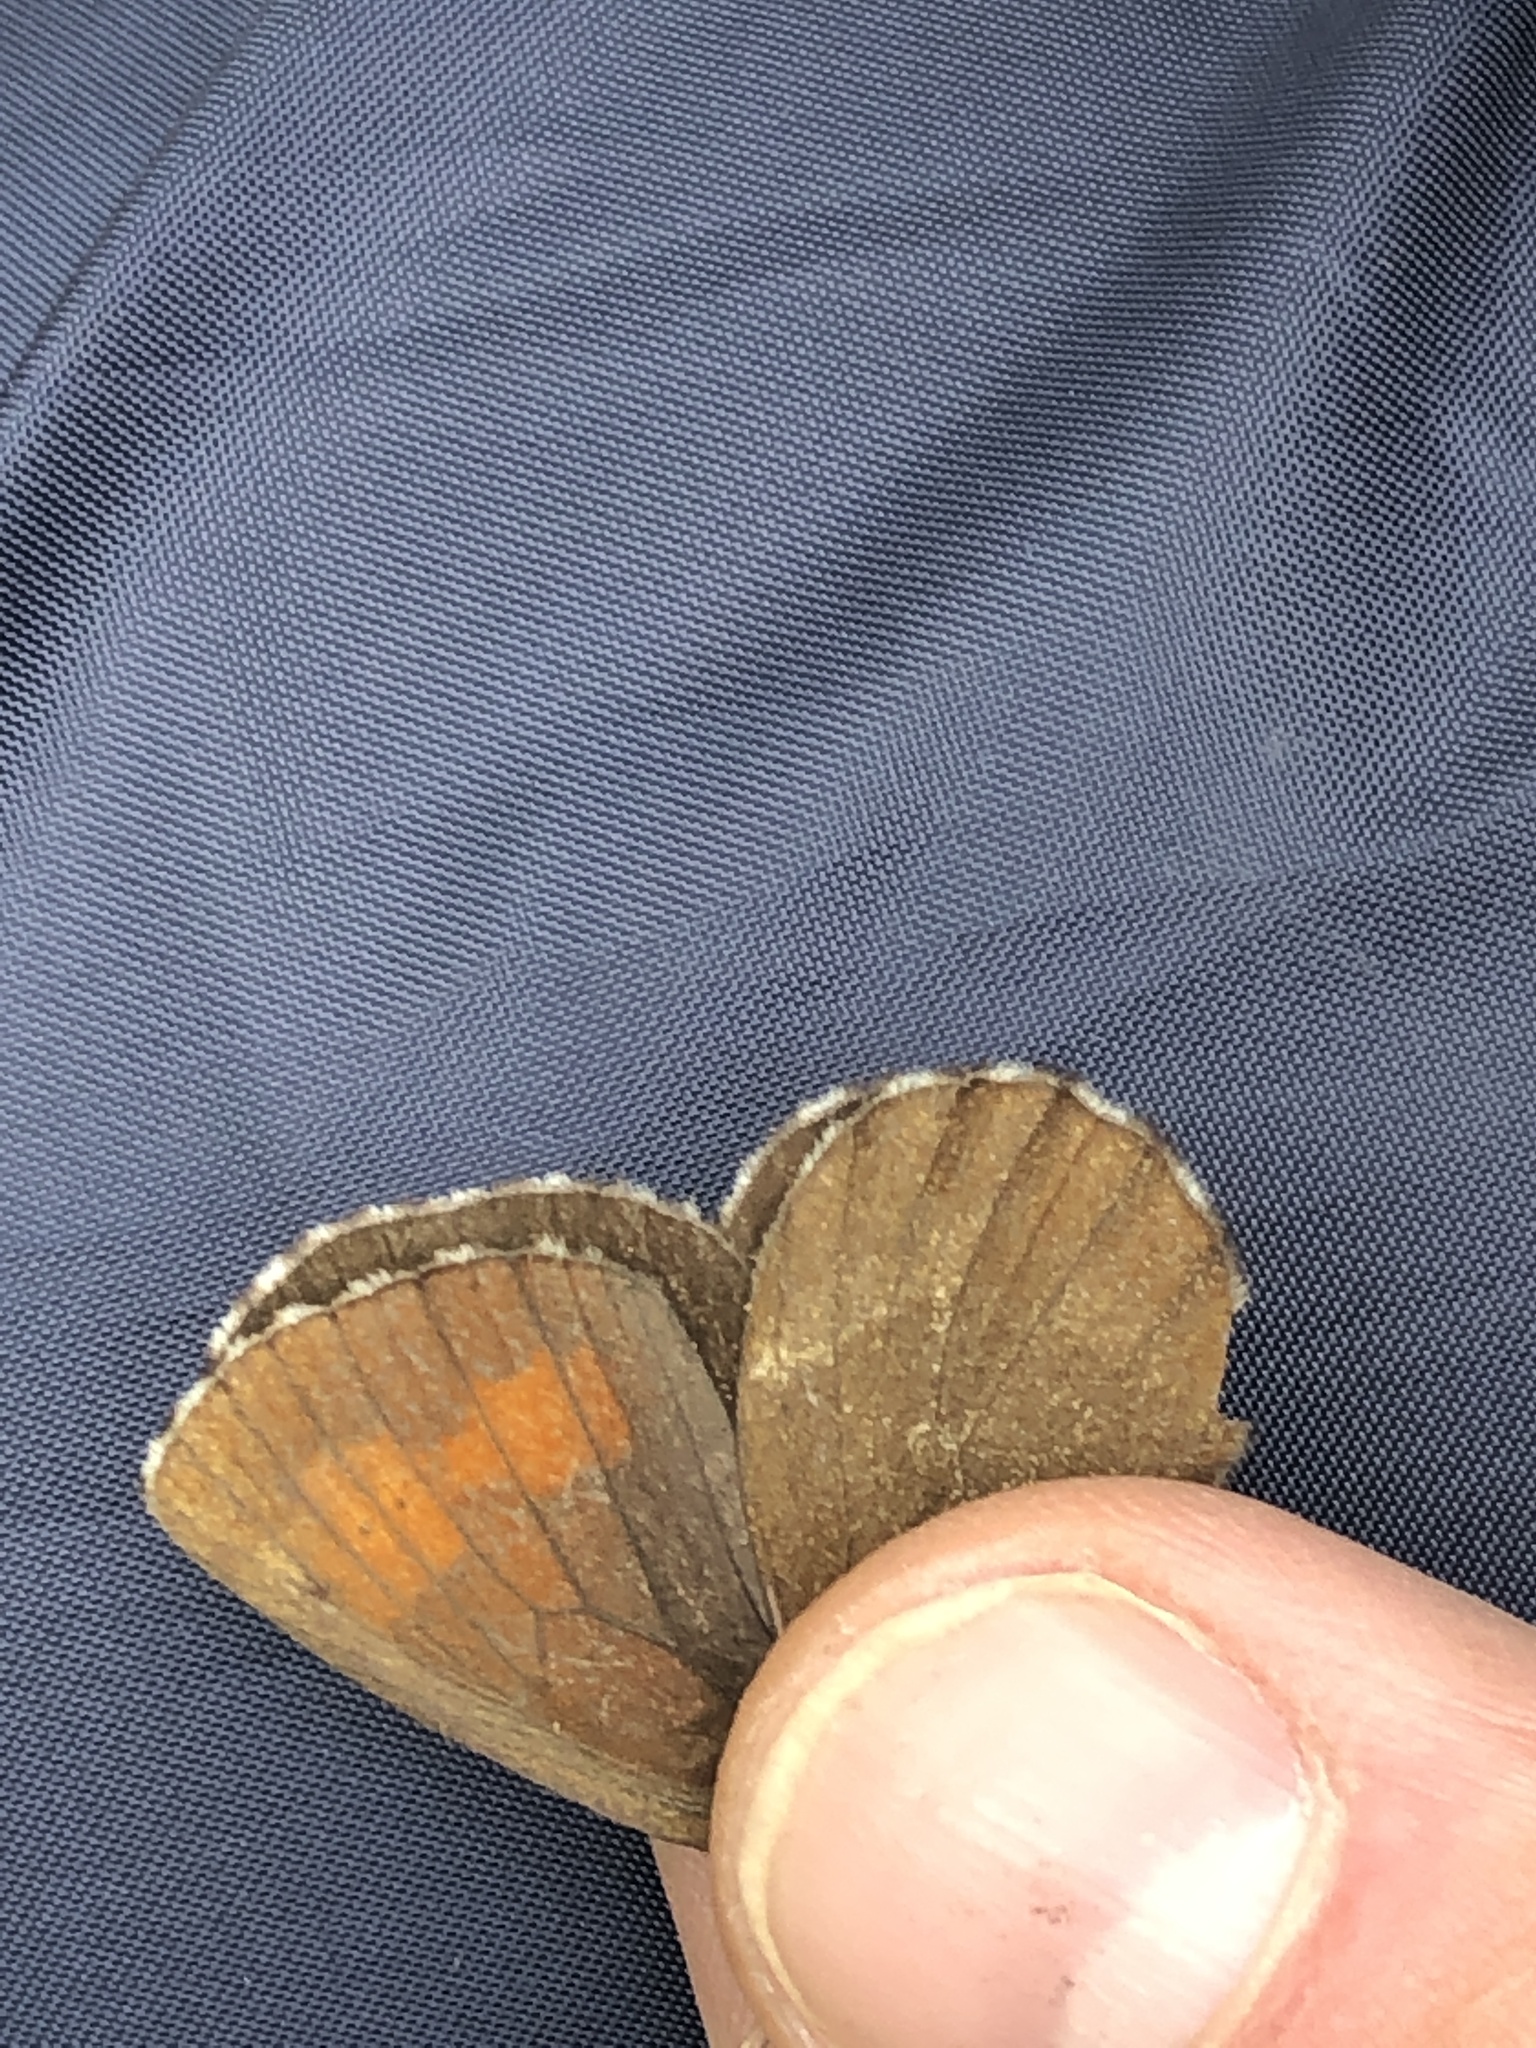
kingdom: Animalia
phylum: Arthropoda
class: Insecta
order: Lepidoptera
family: Nymphalidae
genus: Erebia
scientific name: Erebia euryale
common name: Large ringlet
